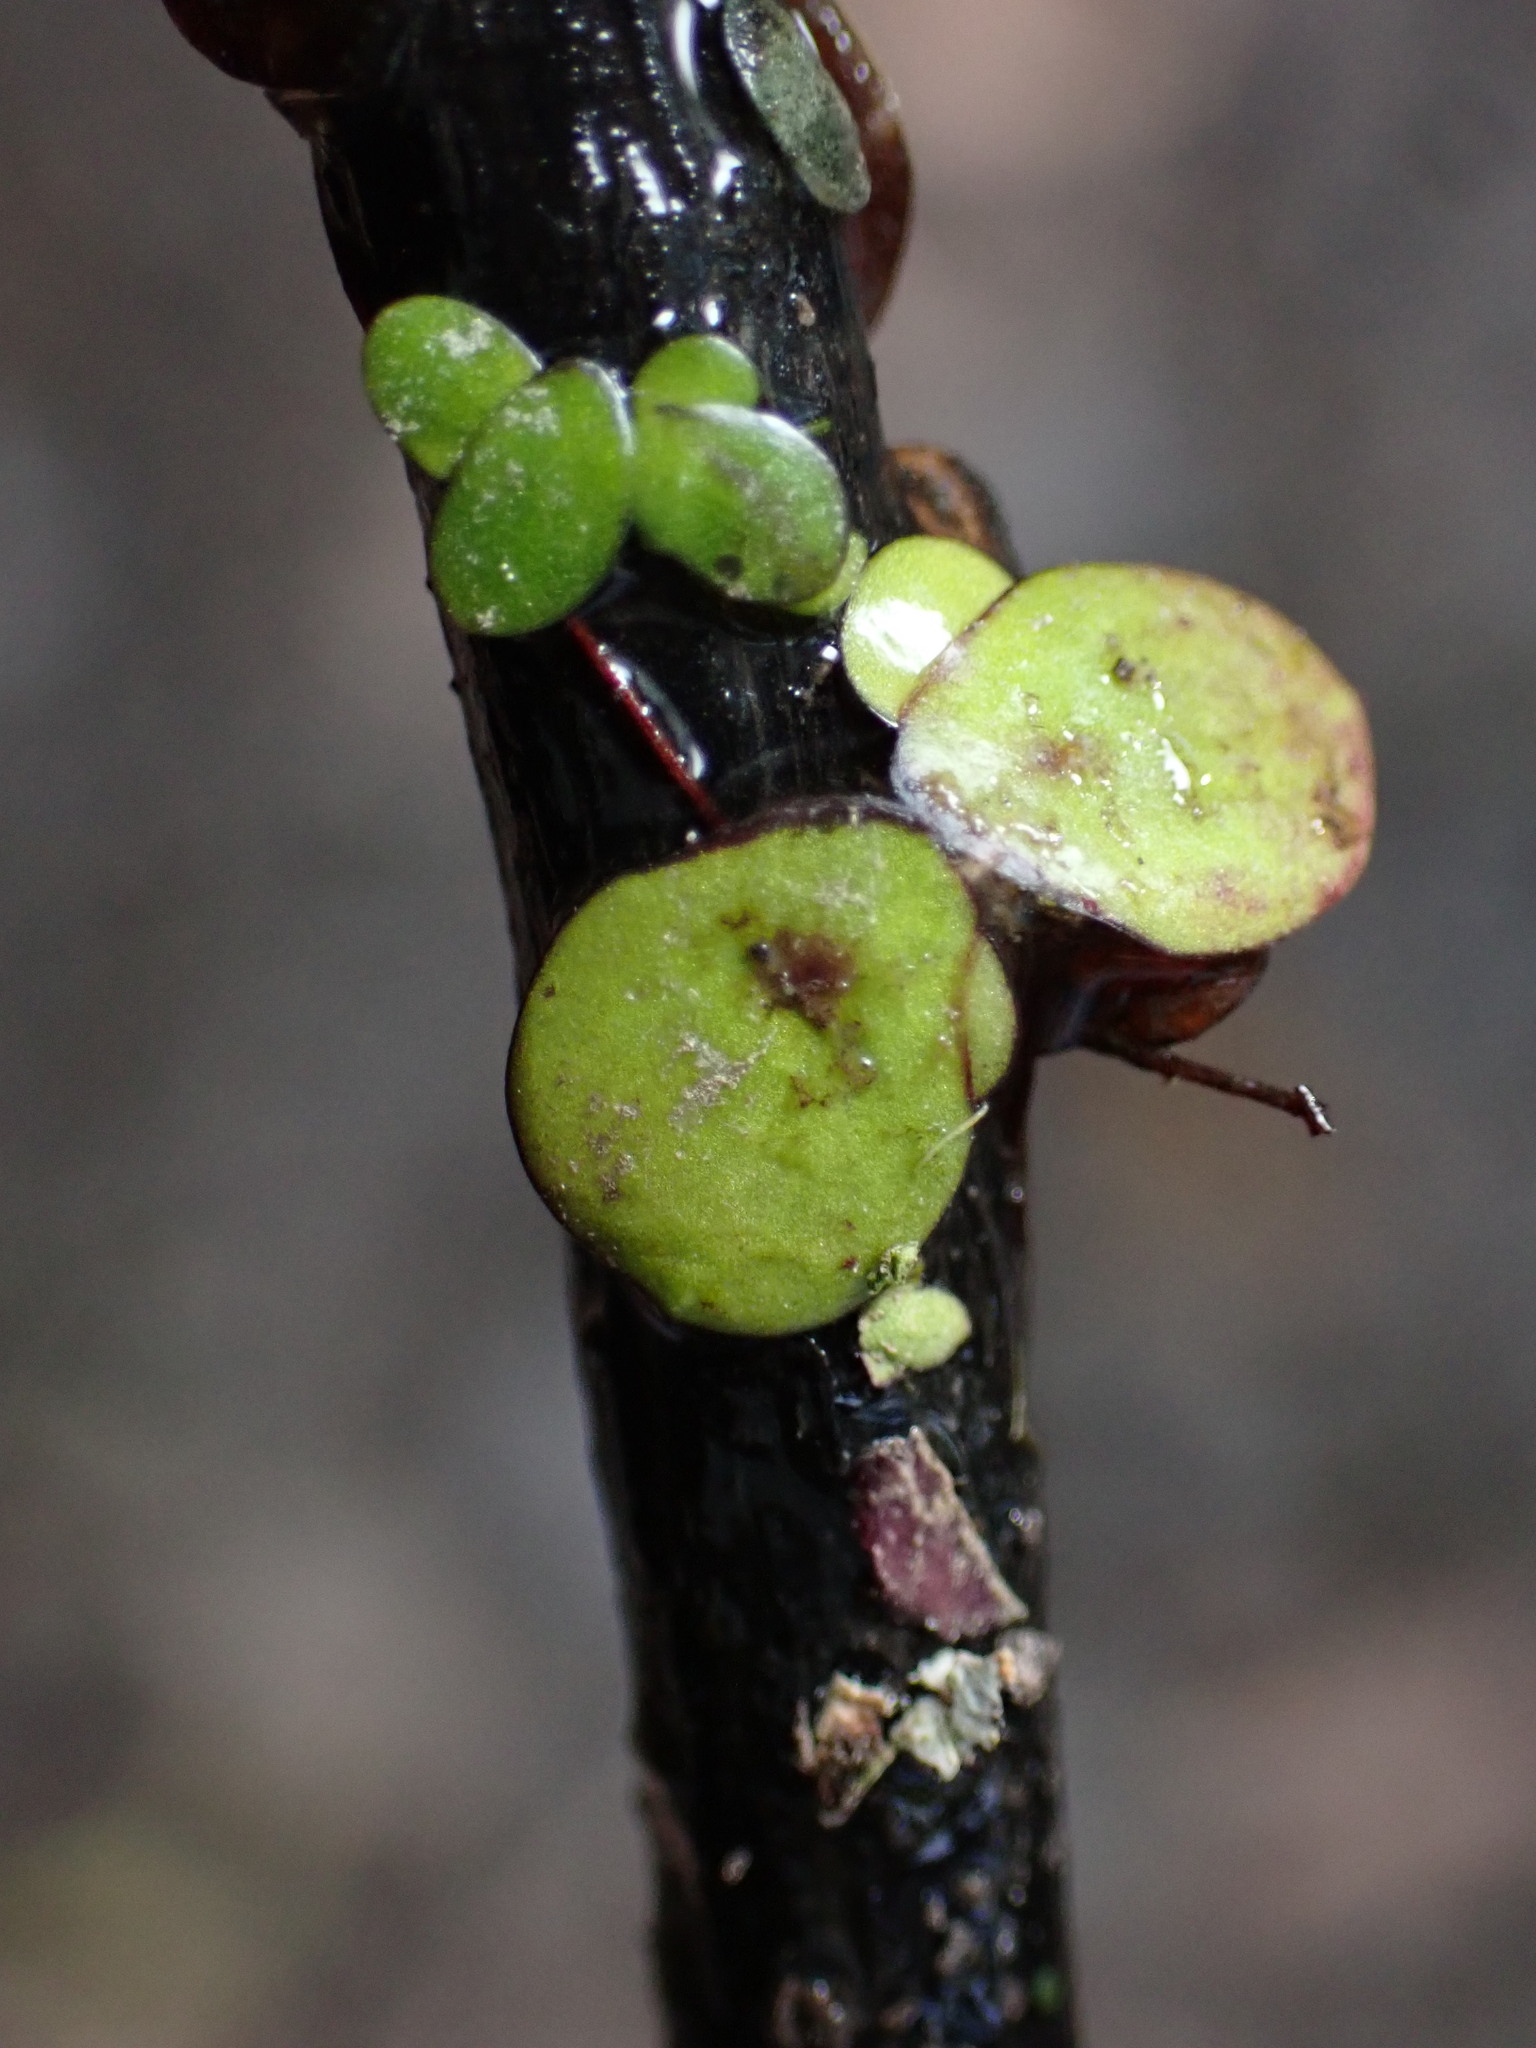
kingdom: Plantae
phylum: Tracheophyta
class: Liliopsida
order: Alismatales
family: Araceae
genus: Spirodela
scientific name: Spirodela polyrhiza
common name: Great duckweed
